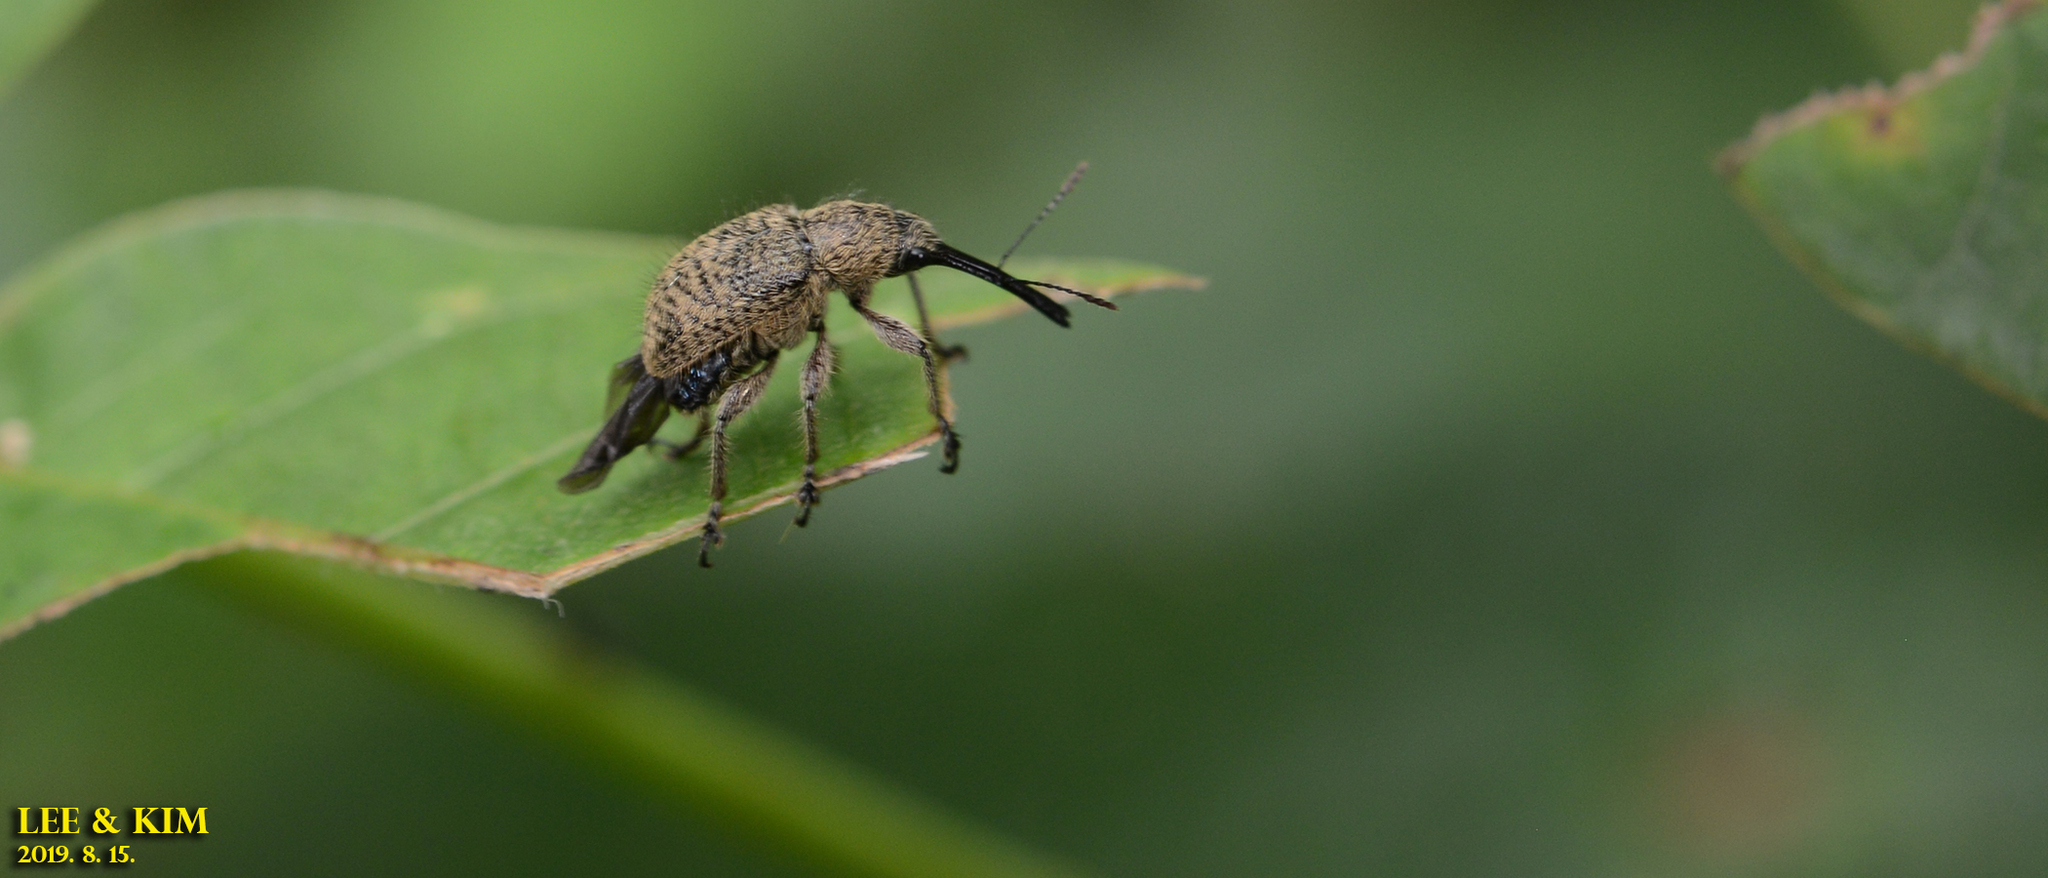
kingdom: Animalia
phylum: Arthropoda
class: Insecta
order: Coleoptera
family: Attelabidae
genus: Cyllorhynchites
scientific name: Cyllorhynchites ursulus
